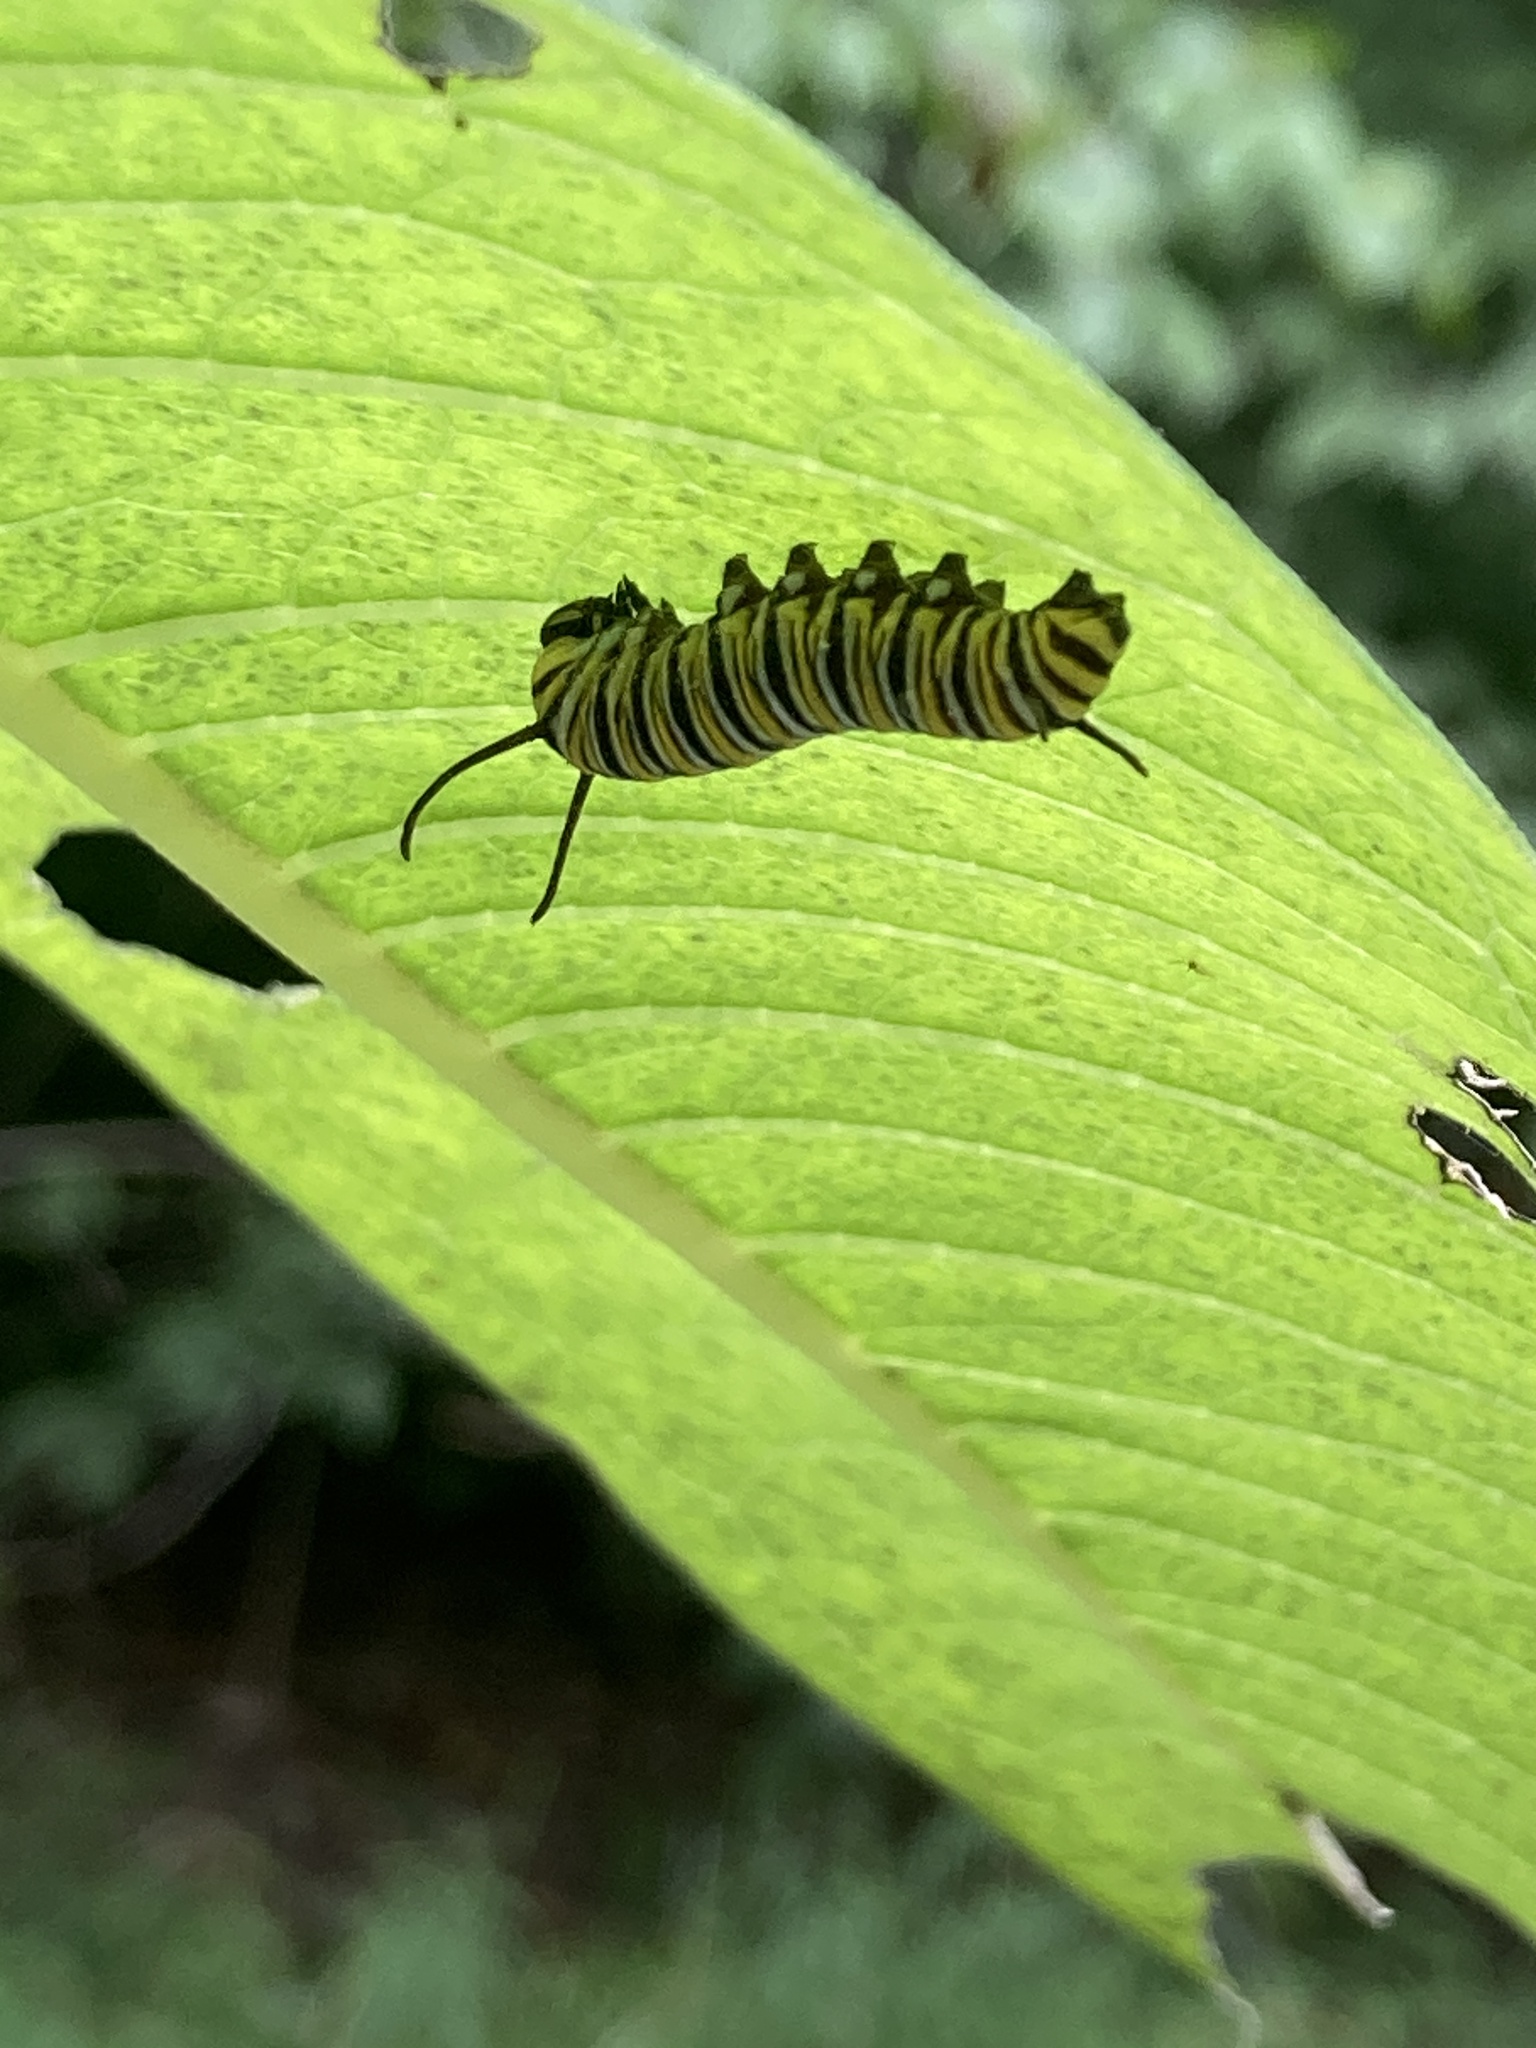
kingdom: Animalia
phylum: Arthropoda
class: Insecta
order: Lepidoptera
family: Nymphalidae
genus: Danaus
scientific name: Danaus plexippus
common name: Monarch
